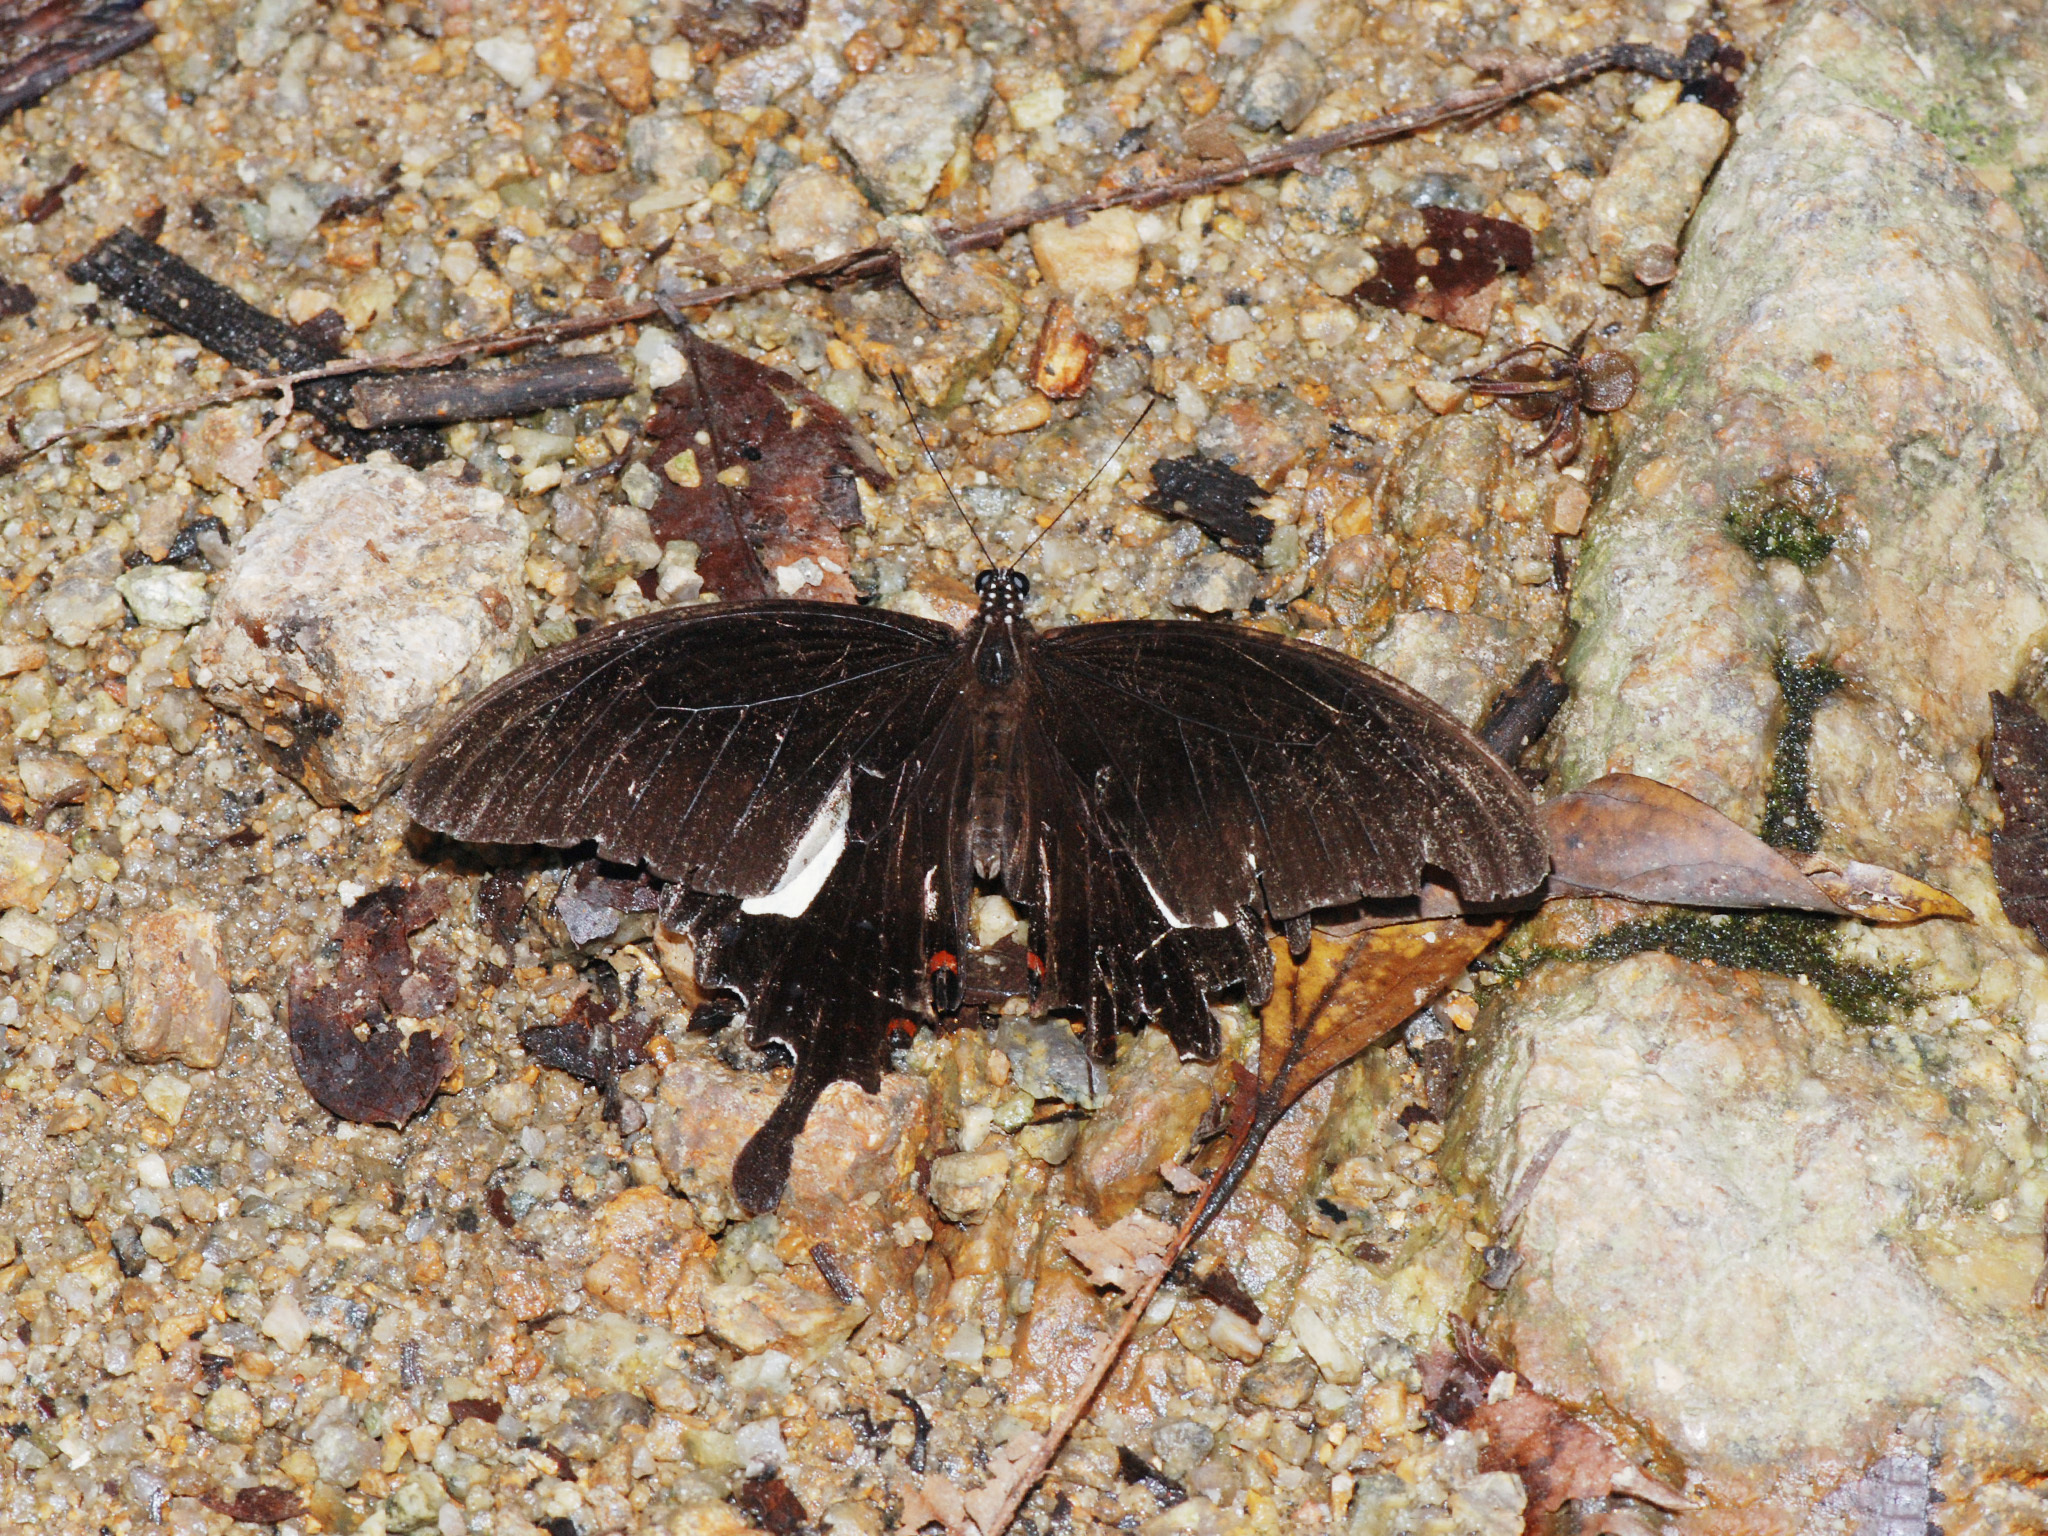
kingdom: Animalia
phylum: Arthropoda
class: Insecta
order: Lepidoptera
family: Papilionidae
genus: Papilio
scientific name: Papilio helenus
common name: Red helen
